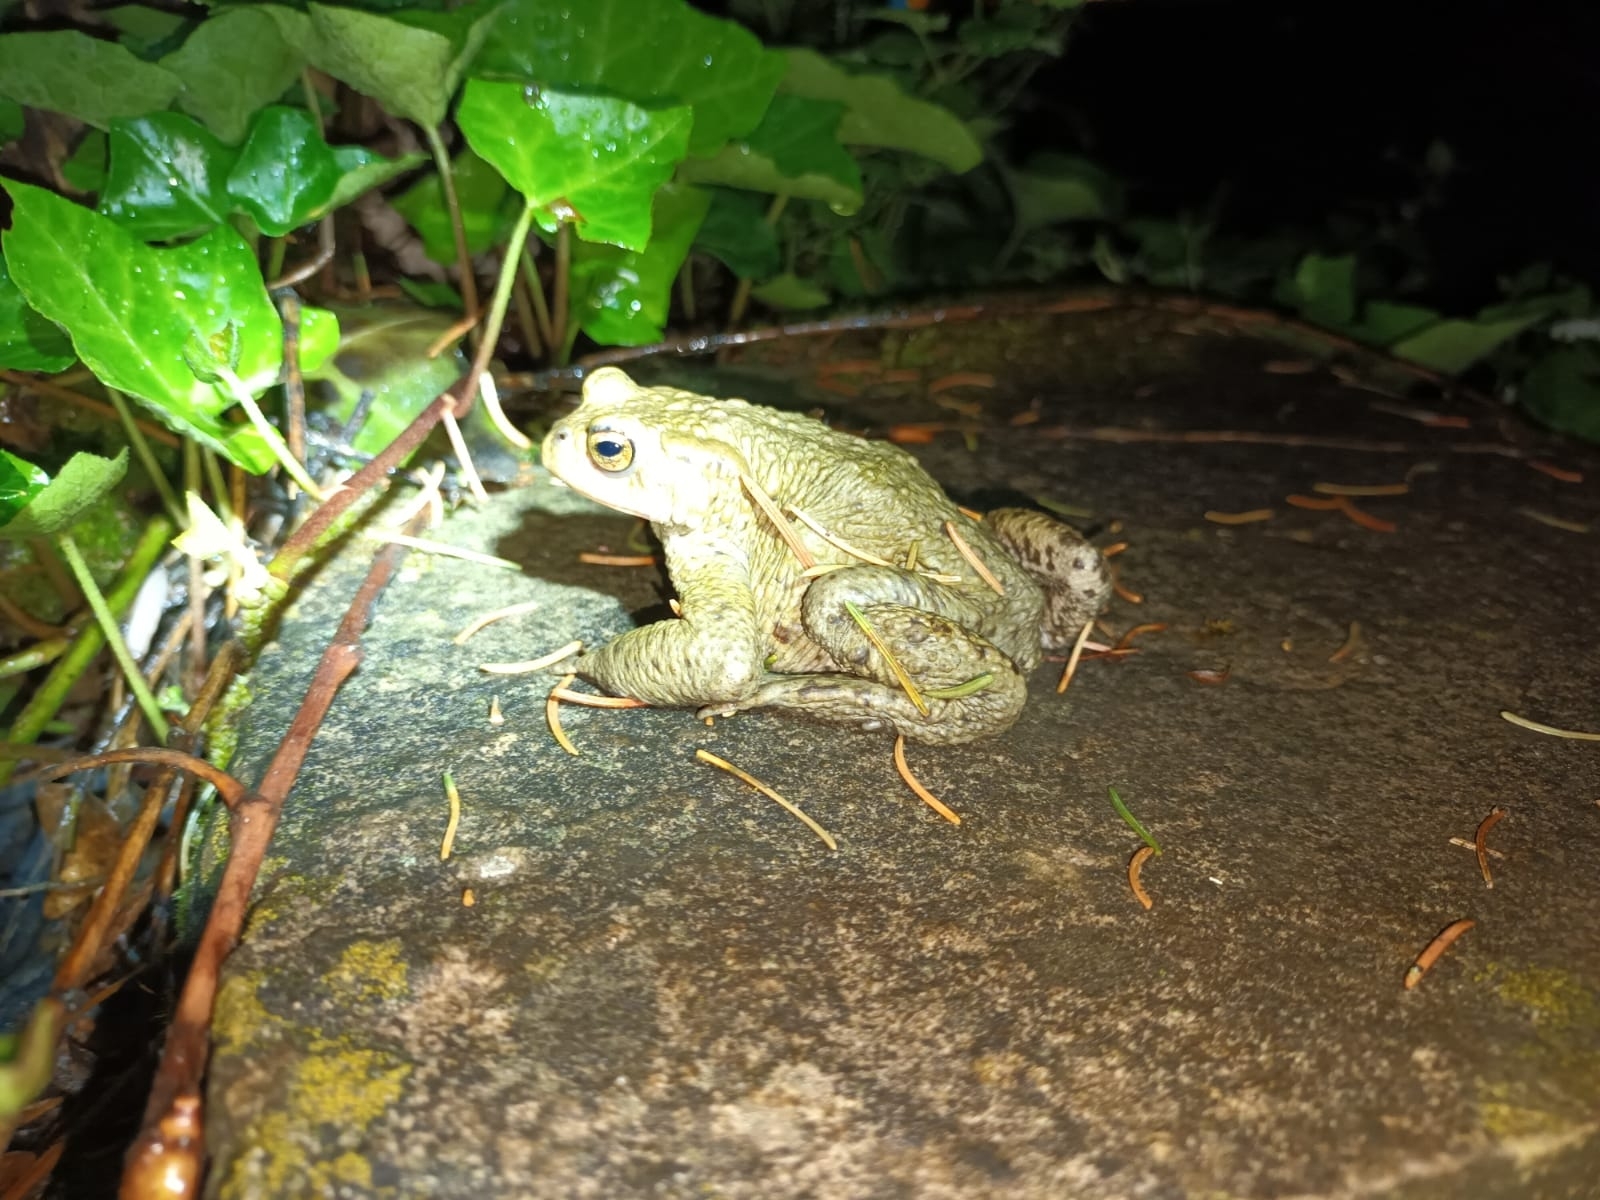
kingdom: Animalia
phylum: Chordata
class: Amphibia
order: Anura
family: Bufonidae
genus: Bufo
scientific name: Bufo bufo
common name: Common toad
